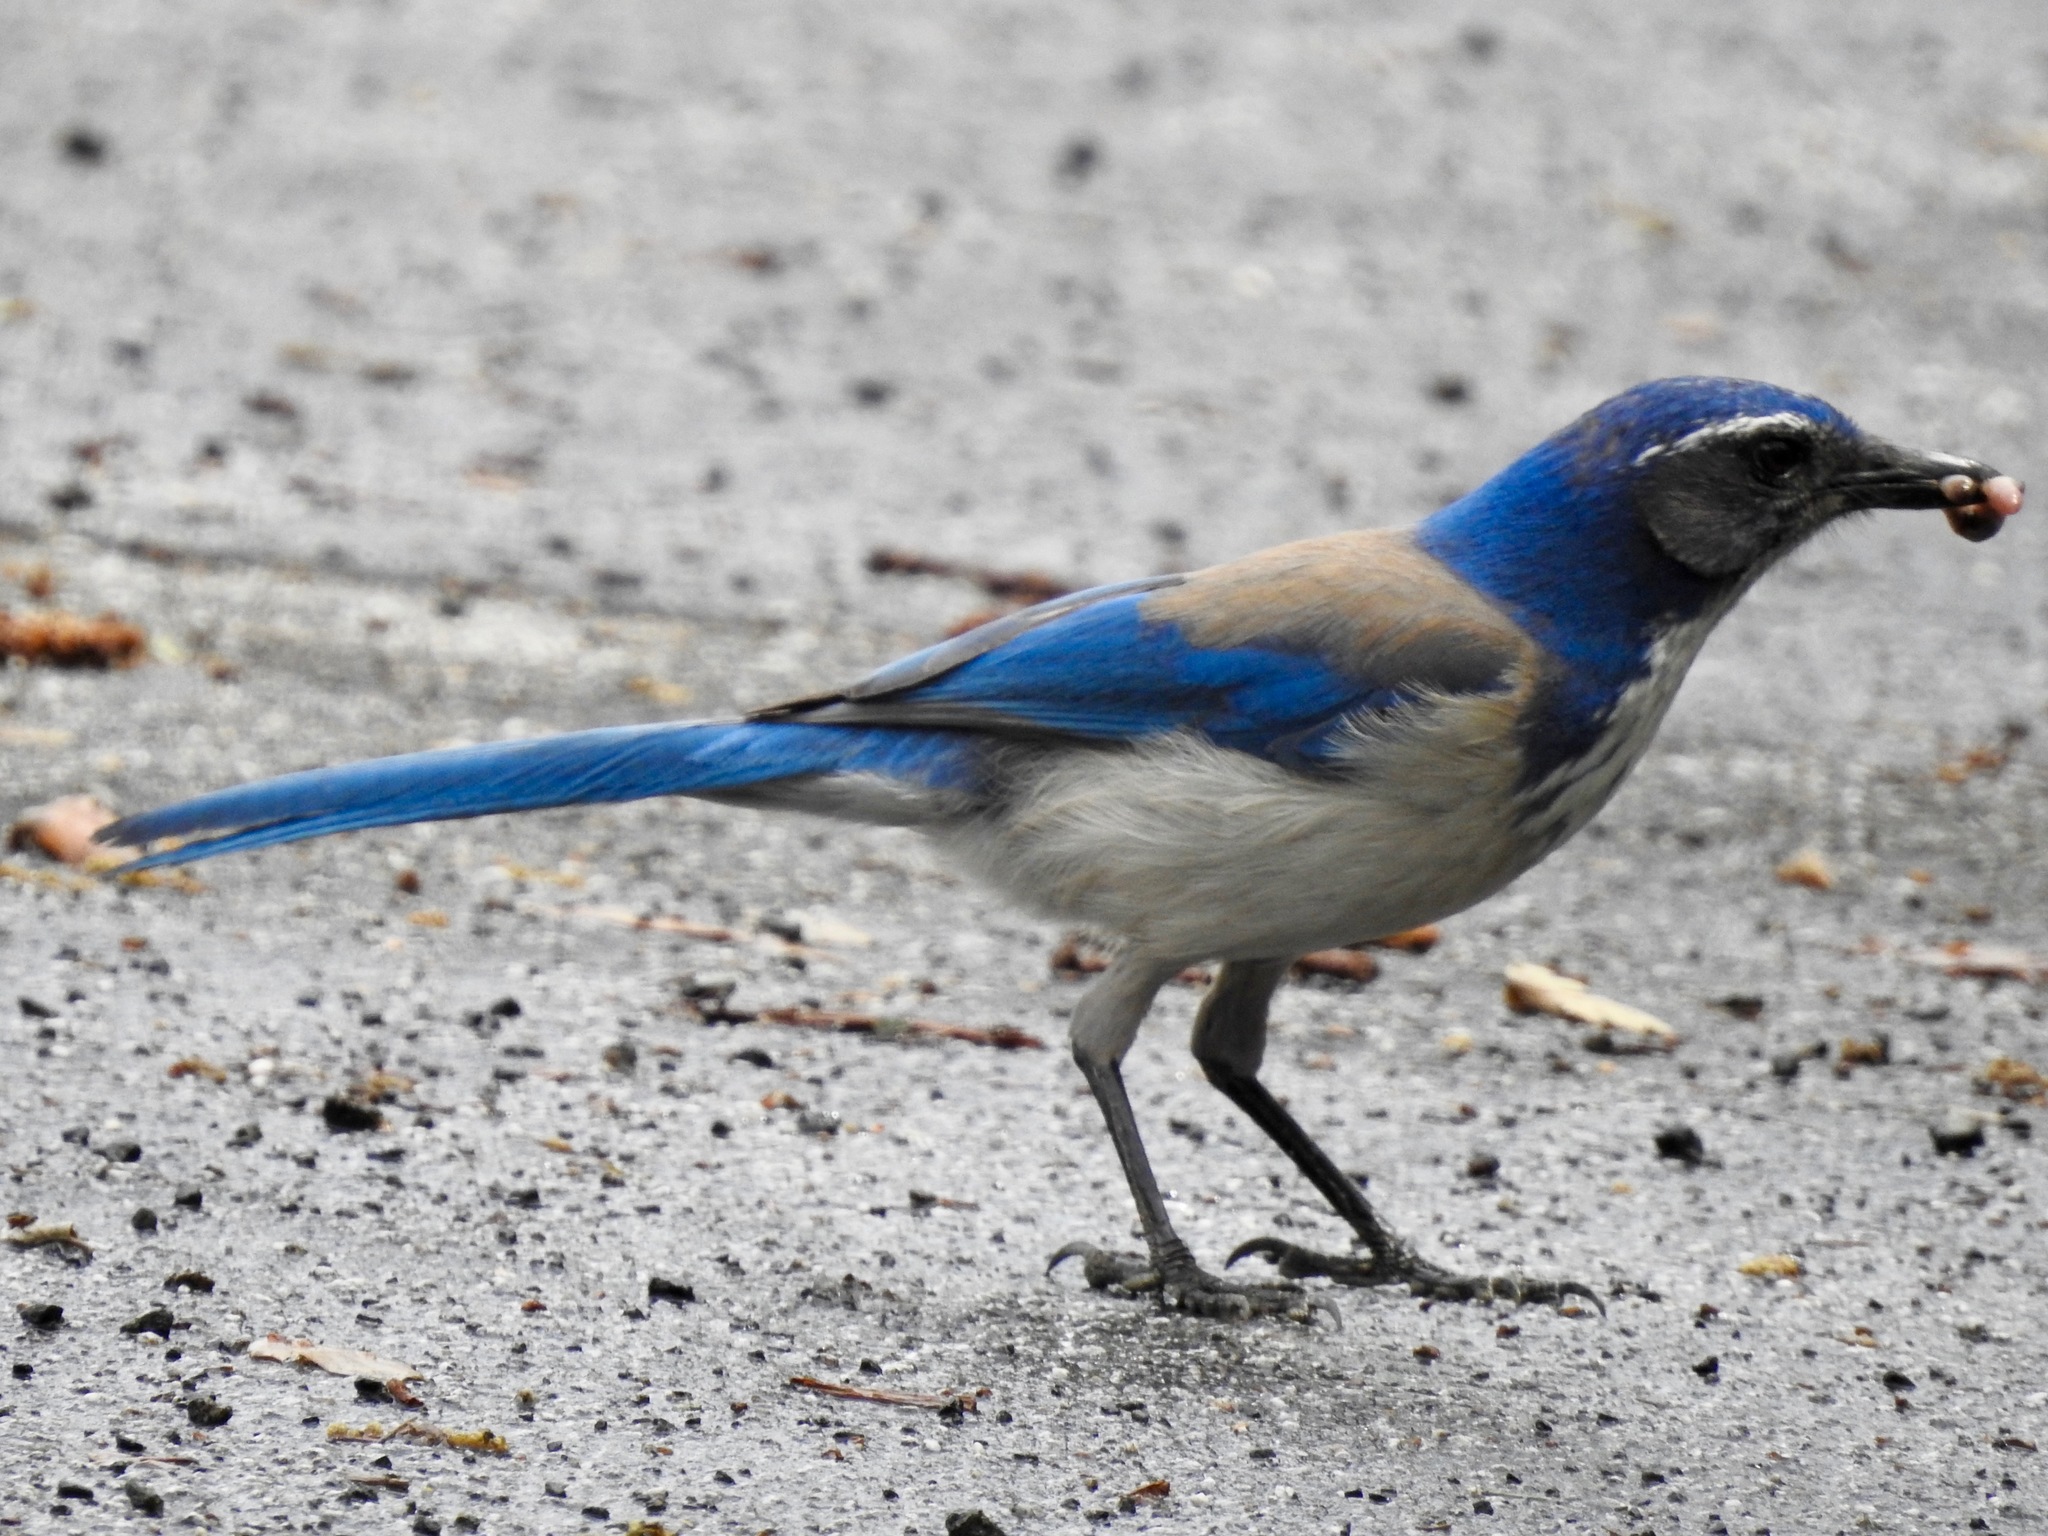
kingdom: Animalia
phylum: Chordata
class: Aves
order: Passeriformes
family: Corvidae
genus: Aphelocoma
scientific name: Aphelocoma californica
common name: California scrub-jay
